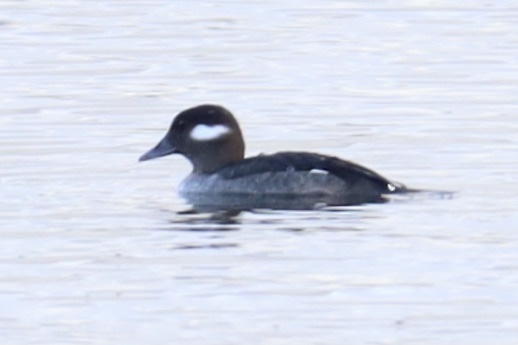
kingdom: Animalia
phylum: Chordata
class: Aves
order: Anseriformes
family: Anatidae
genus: Bucephala
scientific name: Bucephala albeola
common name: Bufflehead
